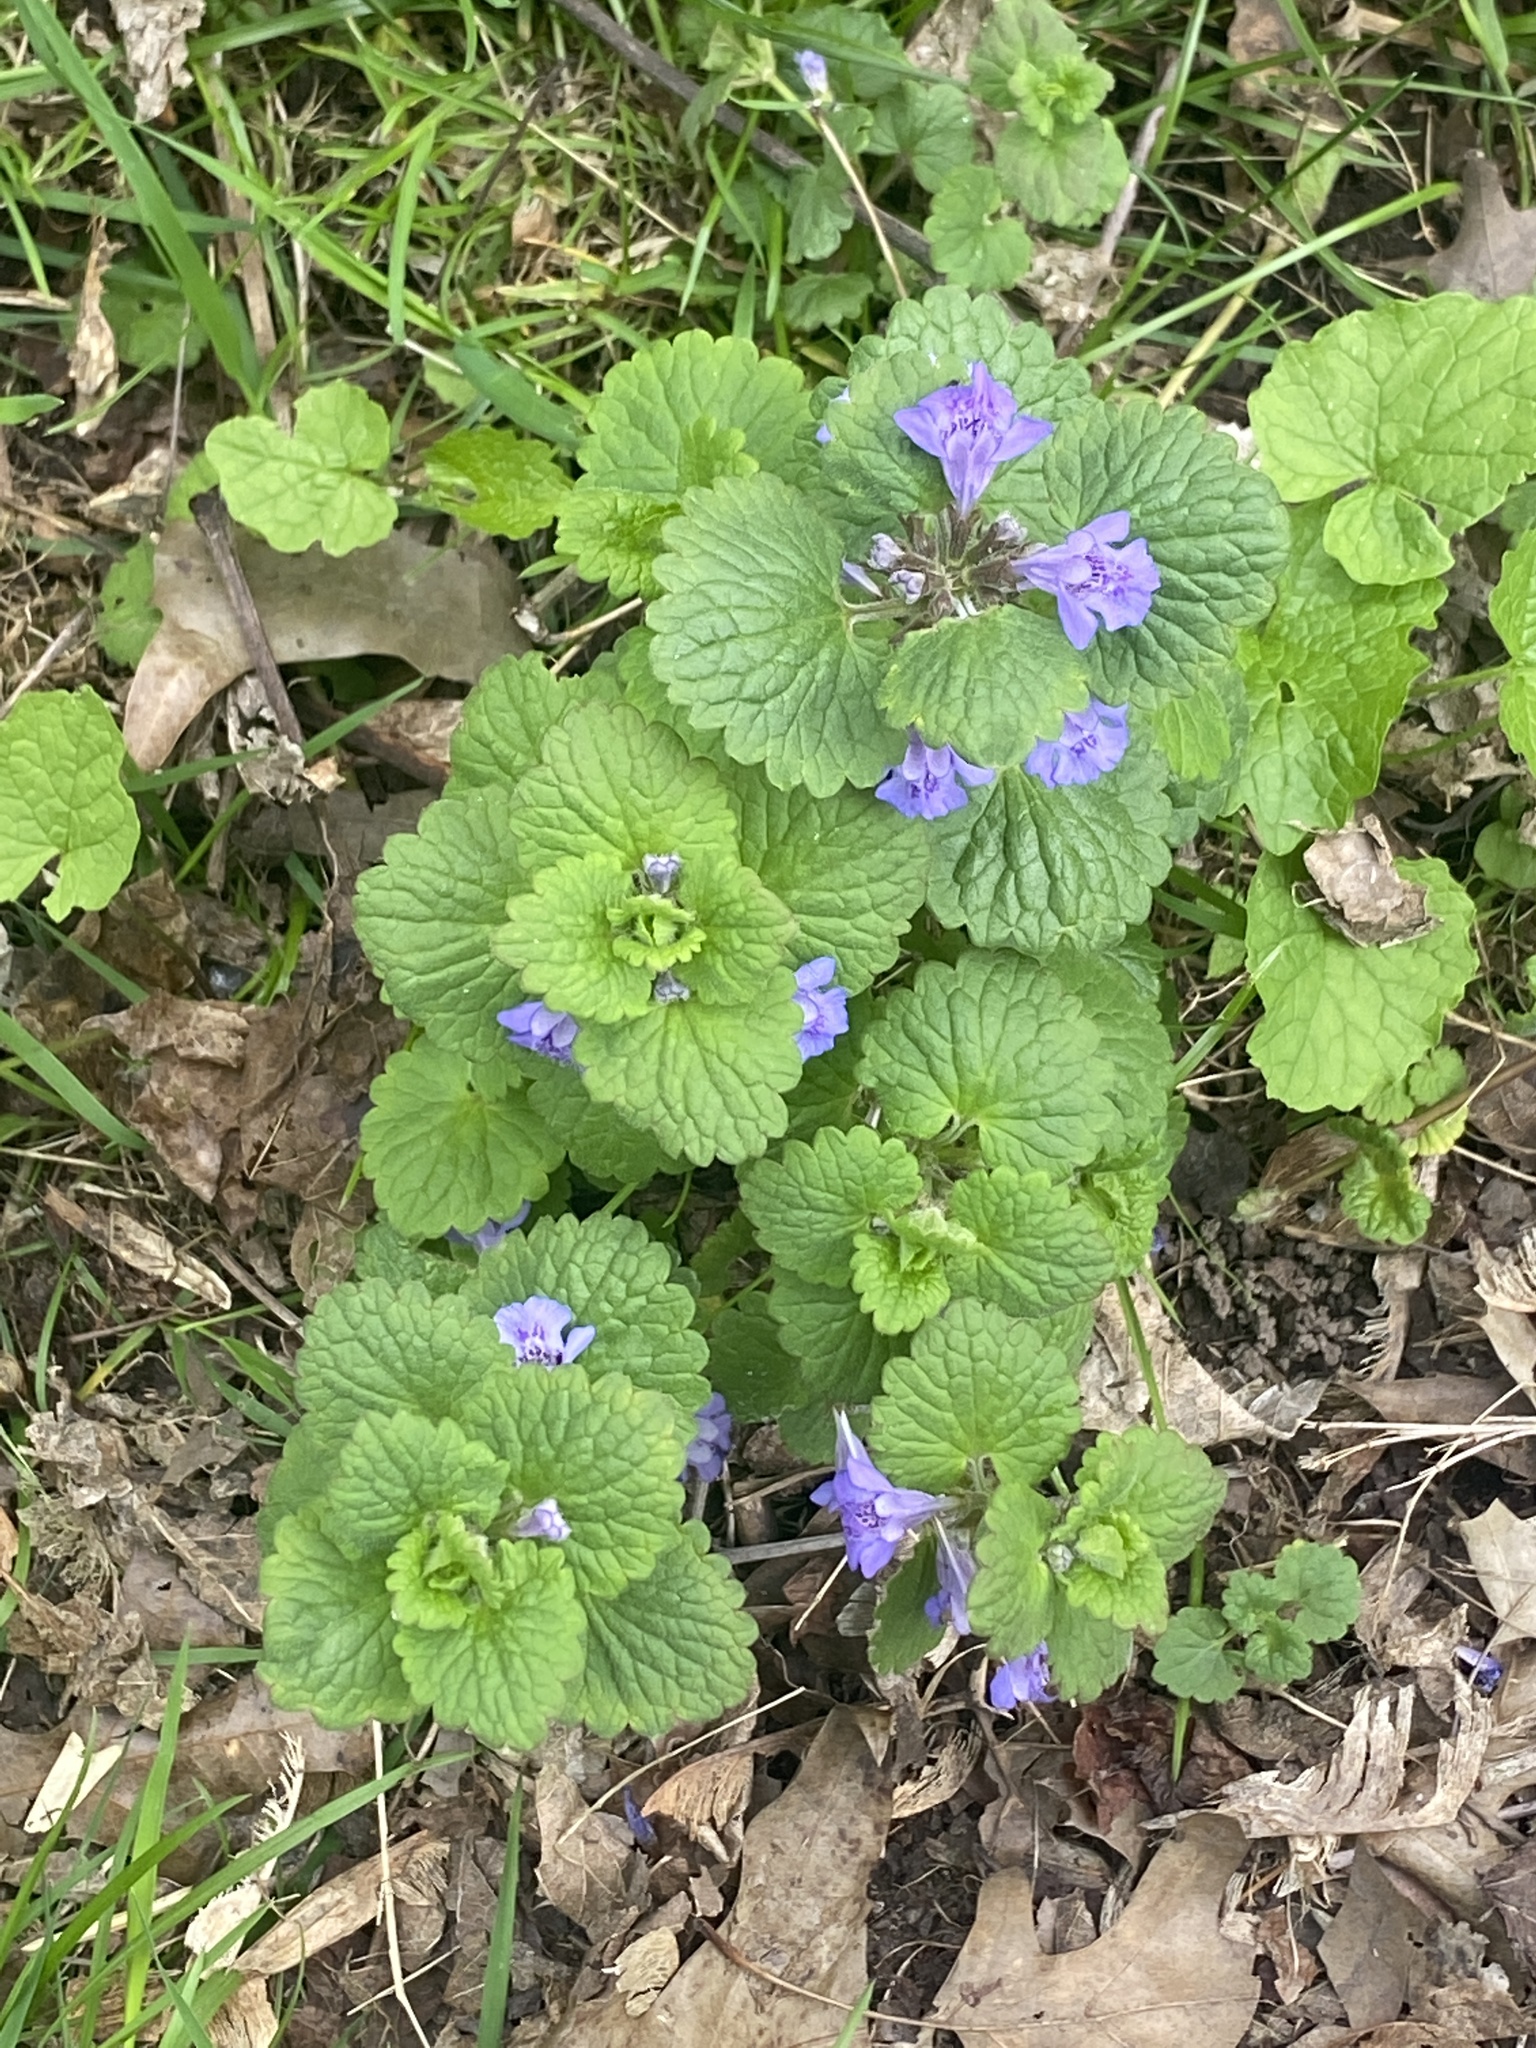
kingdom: Plantae
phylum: Tracheophyta
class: Magnoliopsida
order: Lamiales
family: Lamiaceae
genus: Glechoma
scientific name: Glechoma hederacea
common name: Ground ivy
